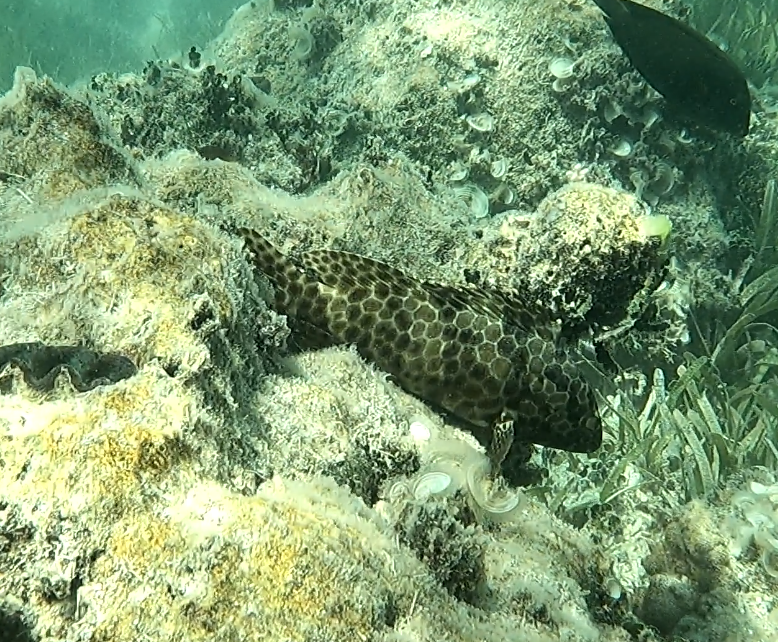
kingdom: Animalia
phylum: Chordata
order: Perciformes
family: Serranidae
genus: Epinephelus
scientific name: Epinephelus quoyanus
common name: Longfin grouper
